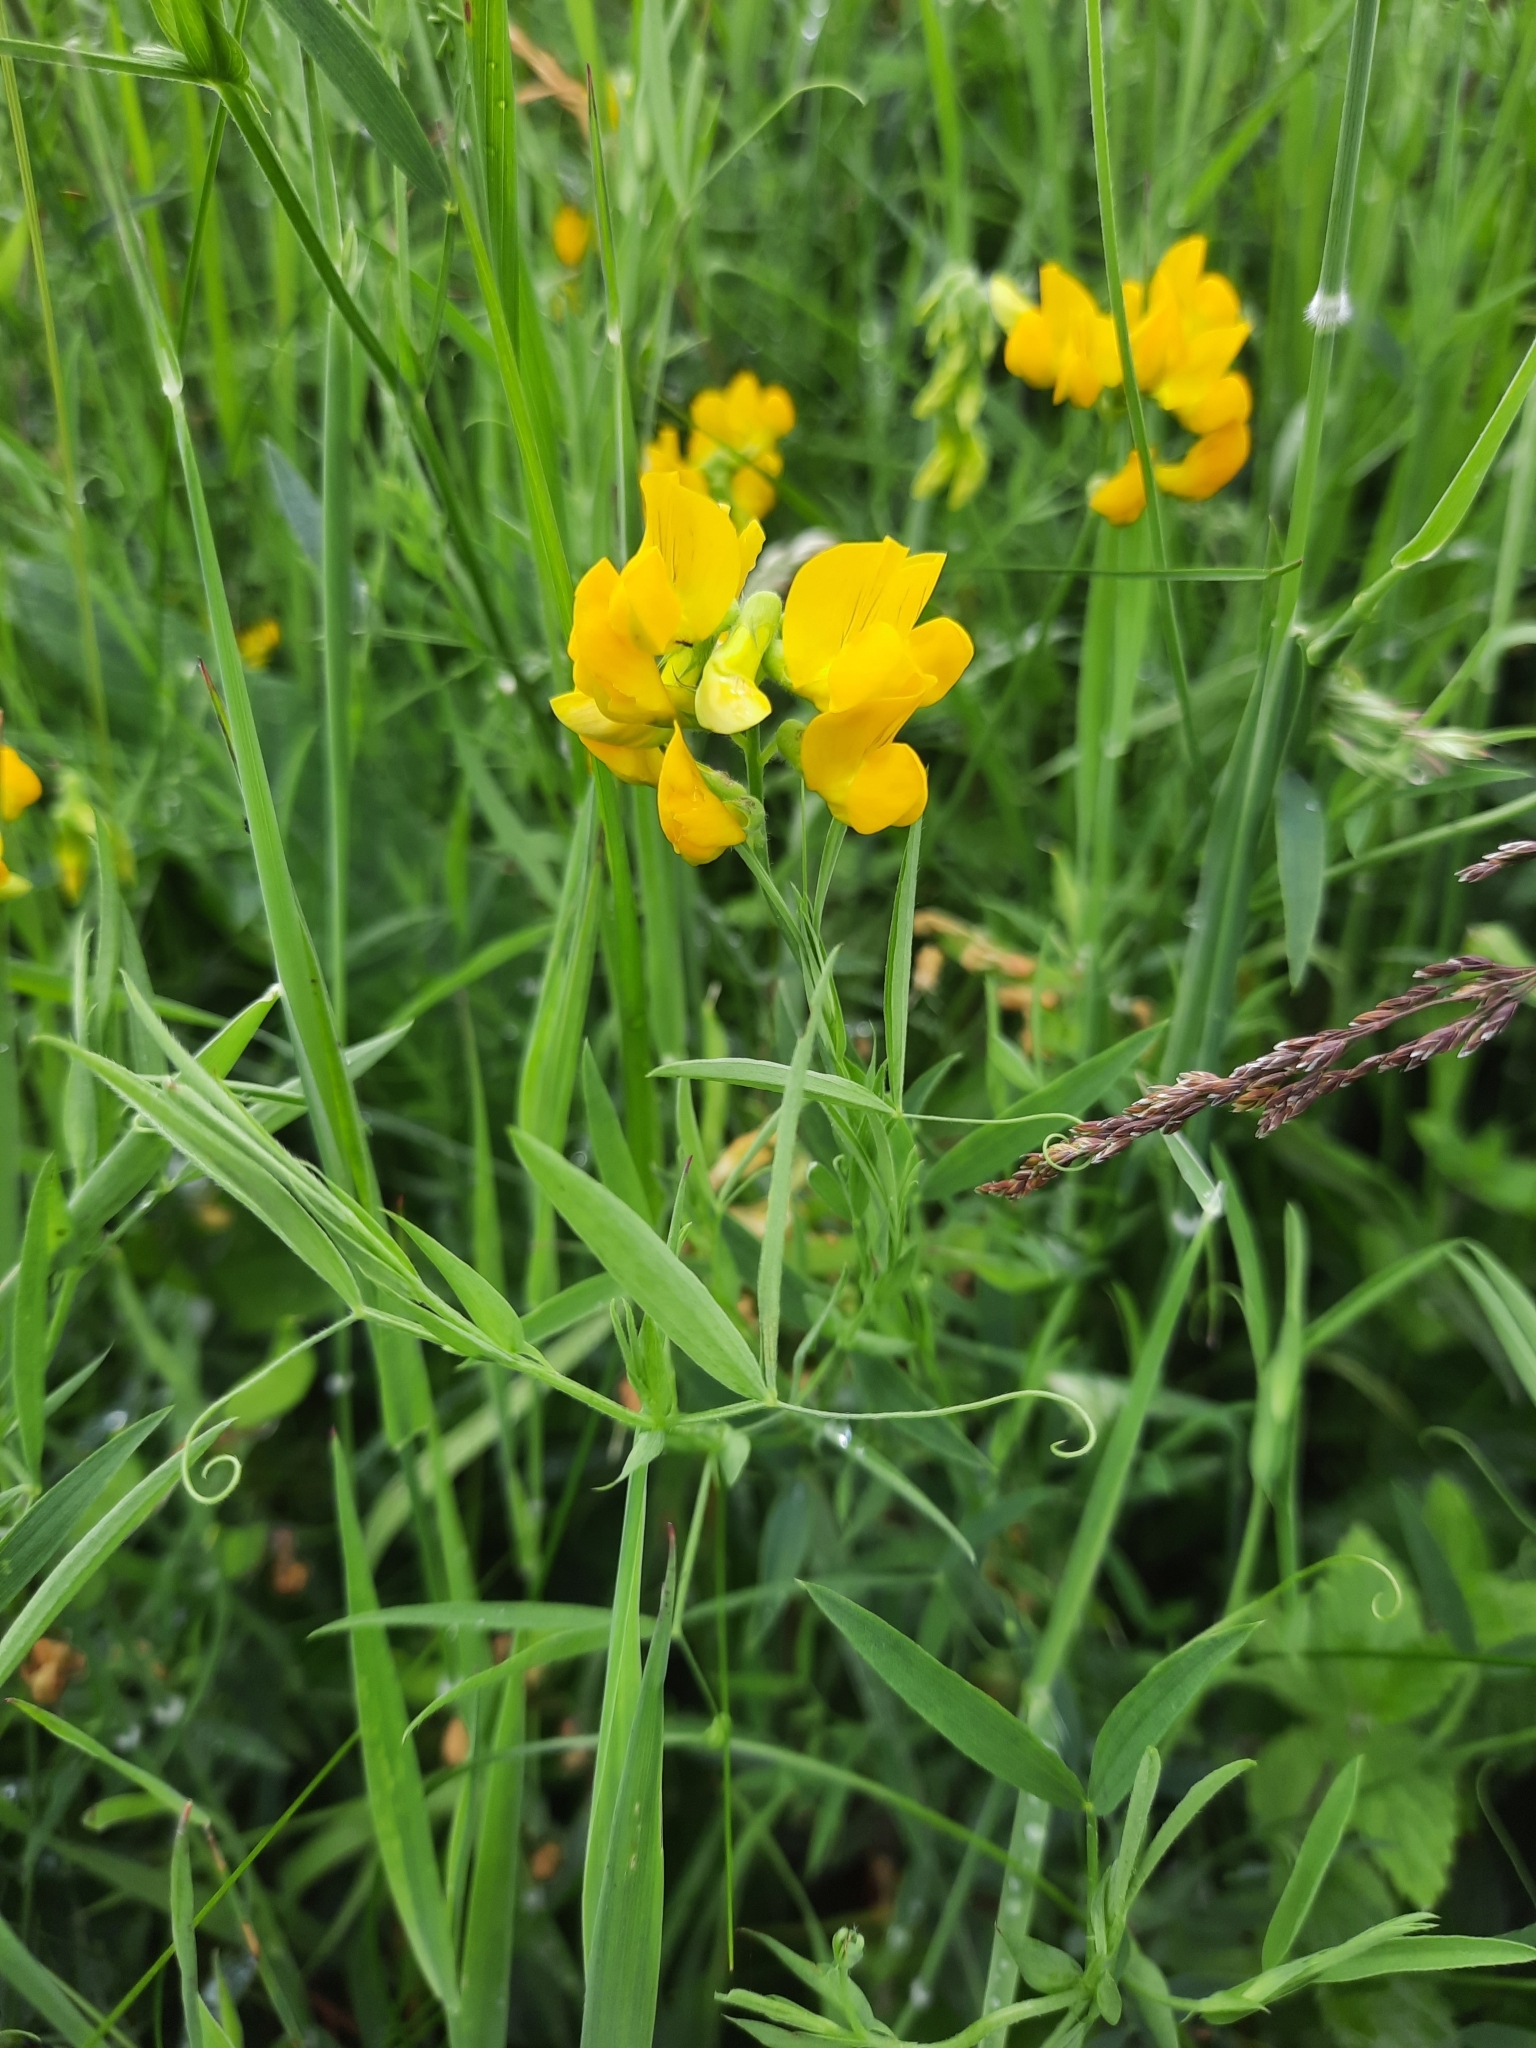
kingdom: Plantae
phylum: Tracheophyta
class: Magnoliopsida
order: Fabales
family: Fabaceae
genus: Lathyrus
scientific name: Lathyrus pratensis
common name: Meadow vetchling
